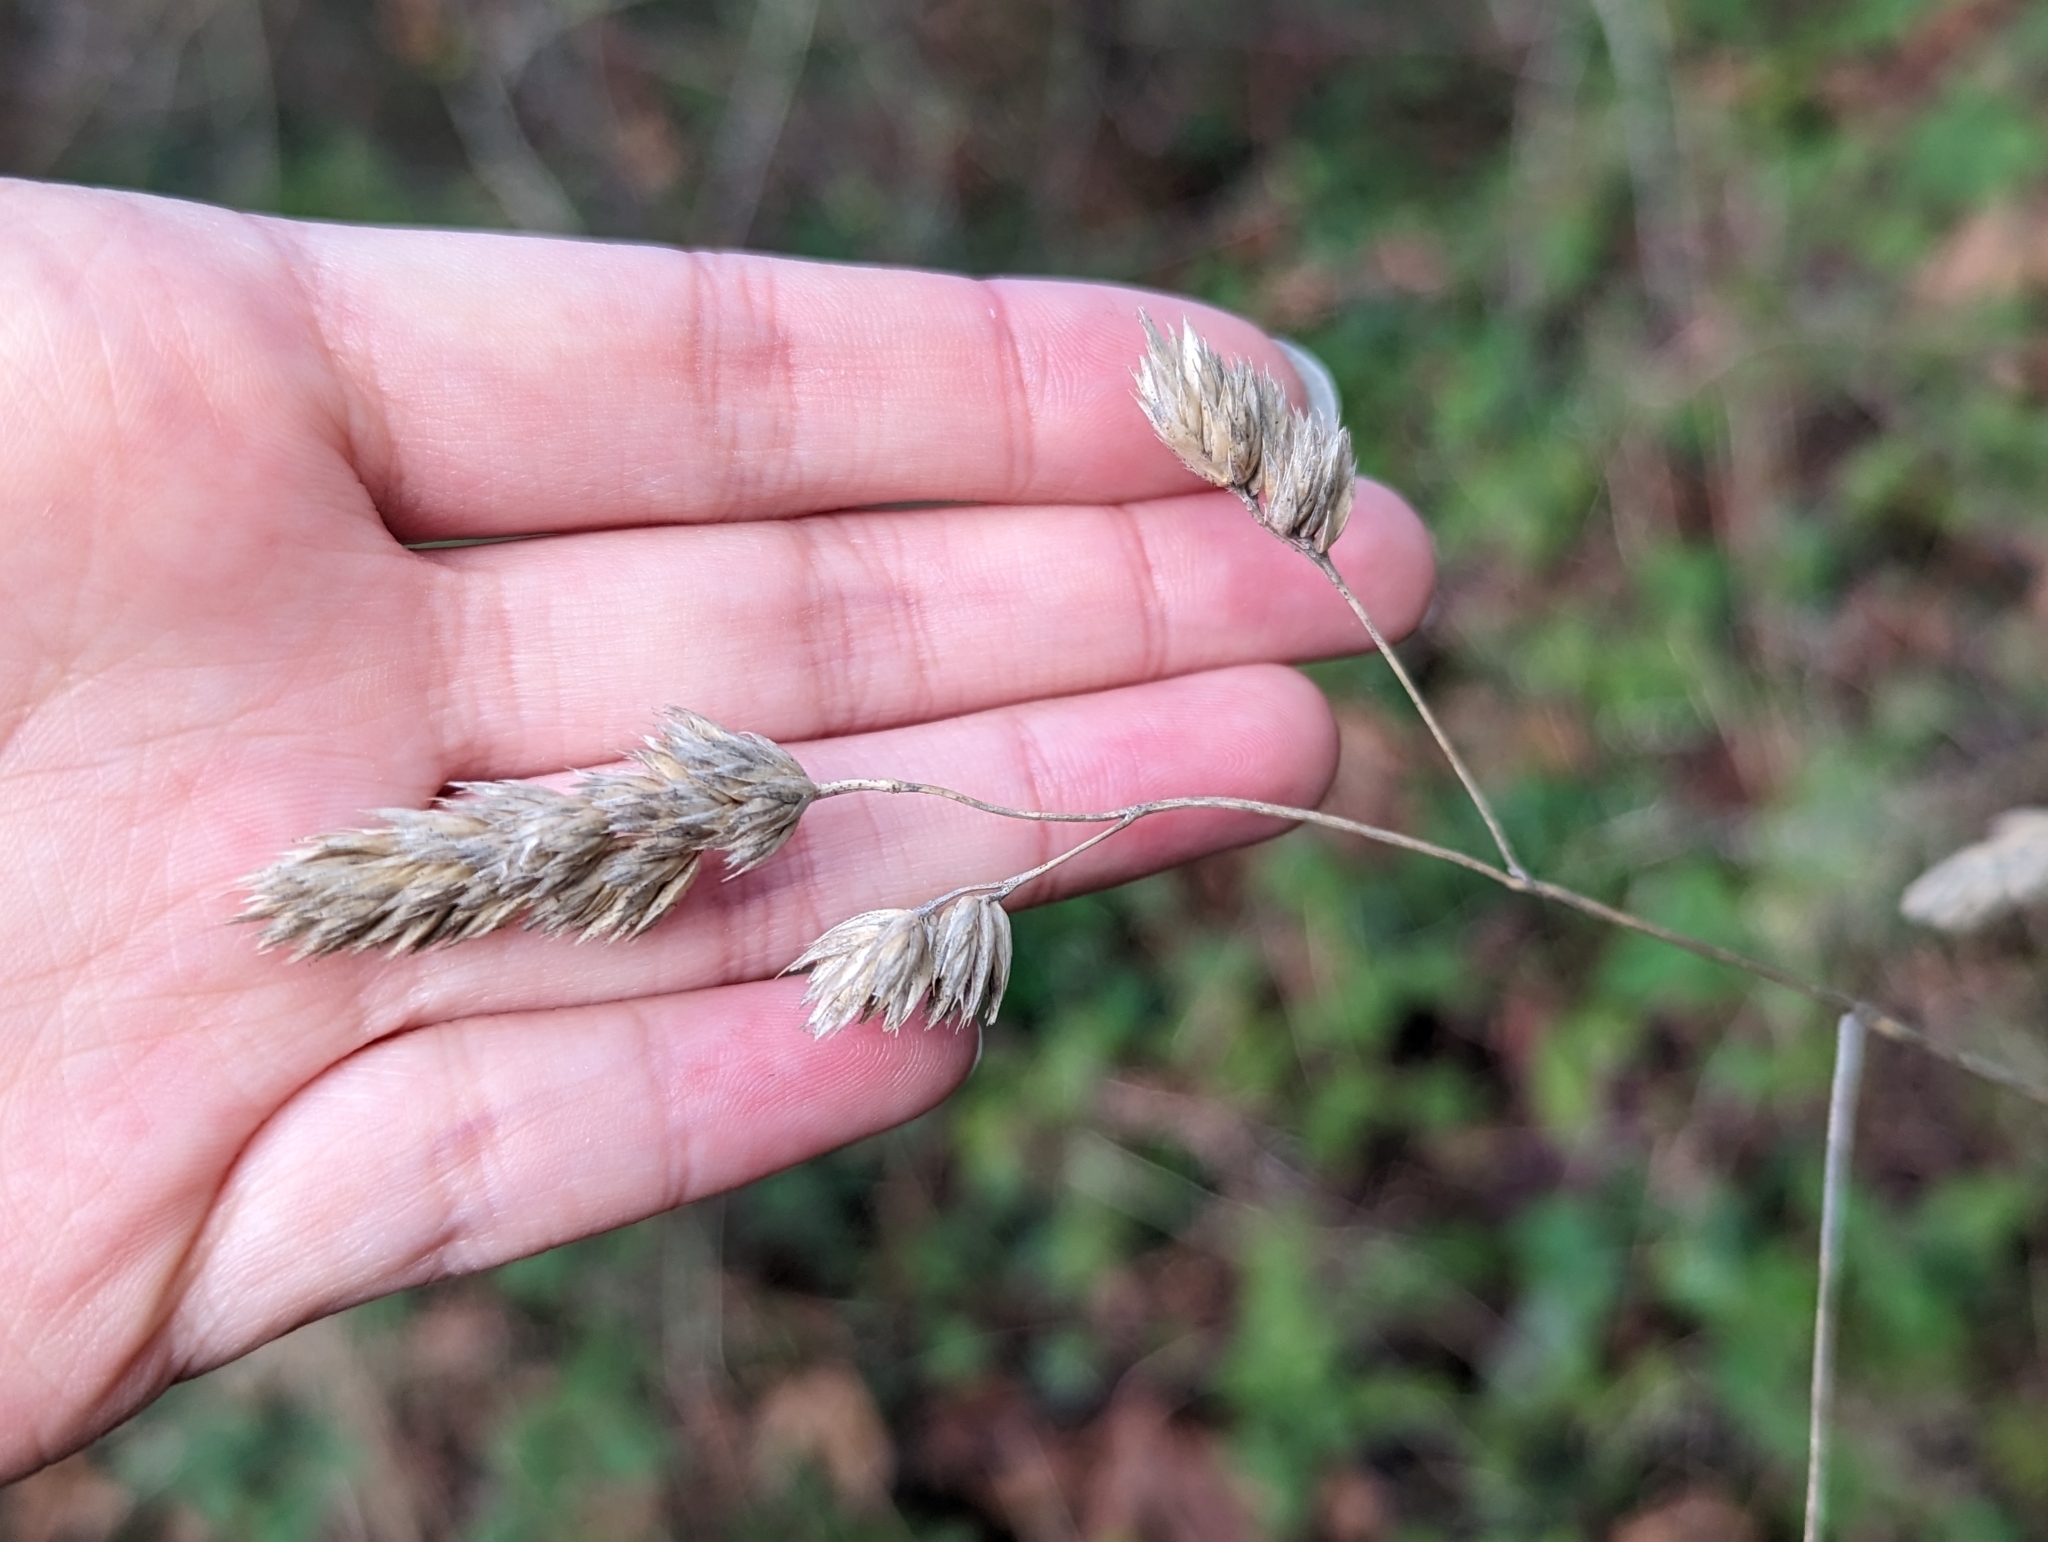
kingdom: Plantae
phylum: Tracheophyta
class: Liliopsida
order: Poales
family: Poaceae
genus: Dactylis
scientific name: Dactylis glomerata
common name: Orchardgrass
